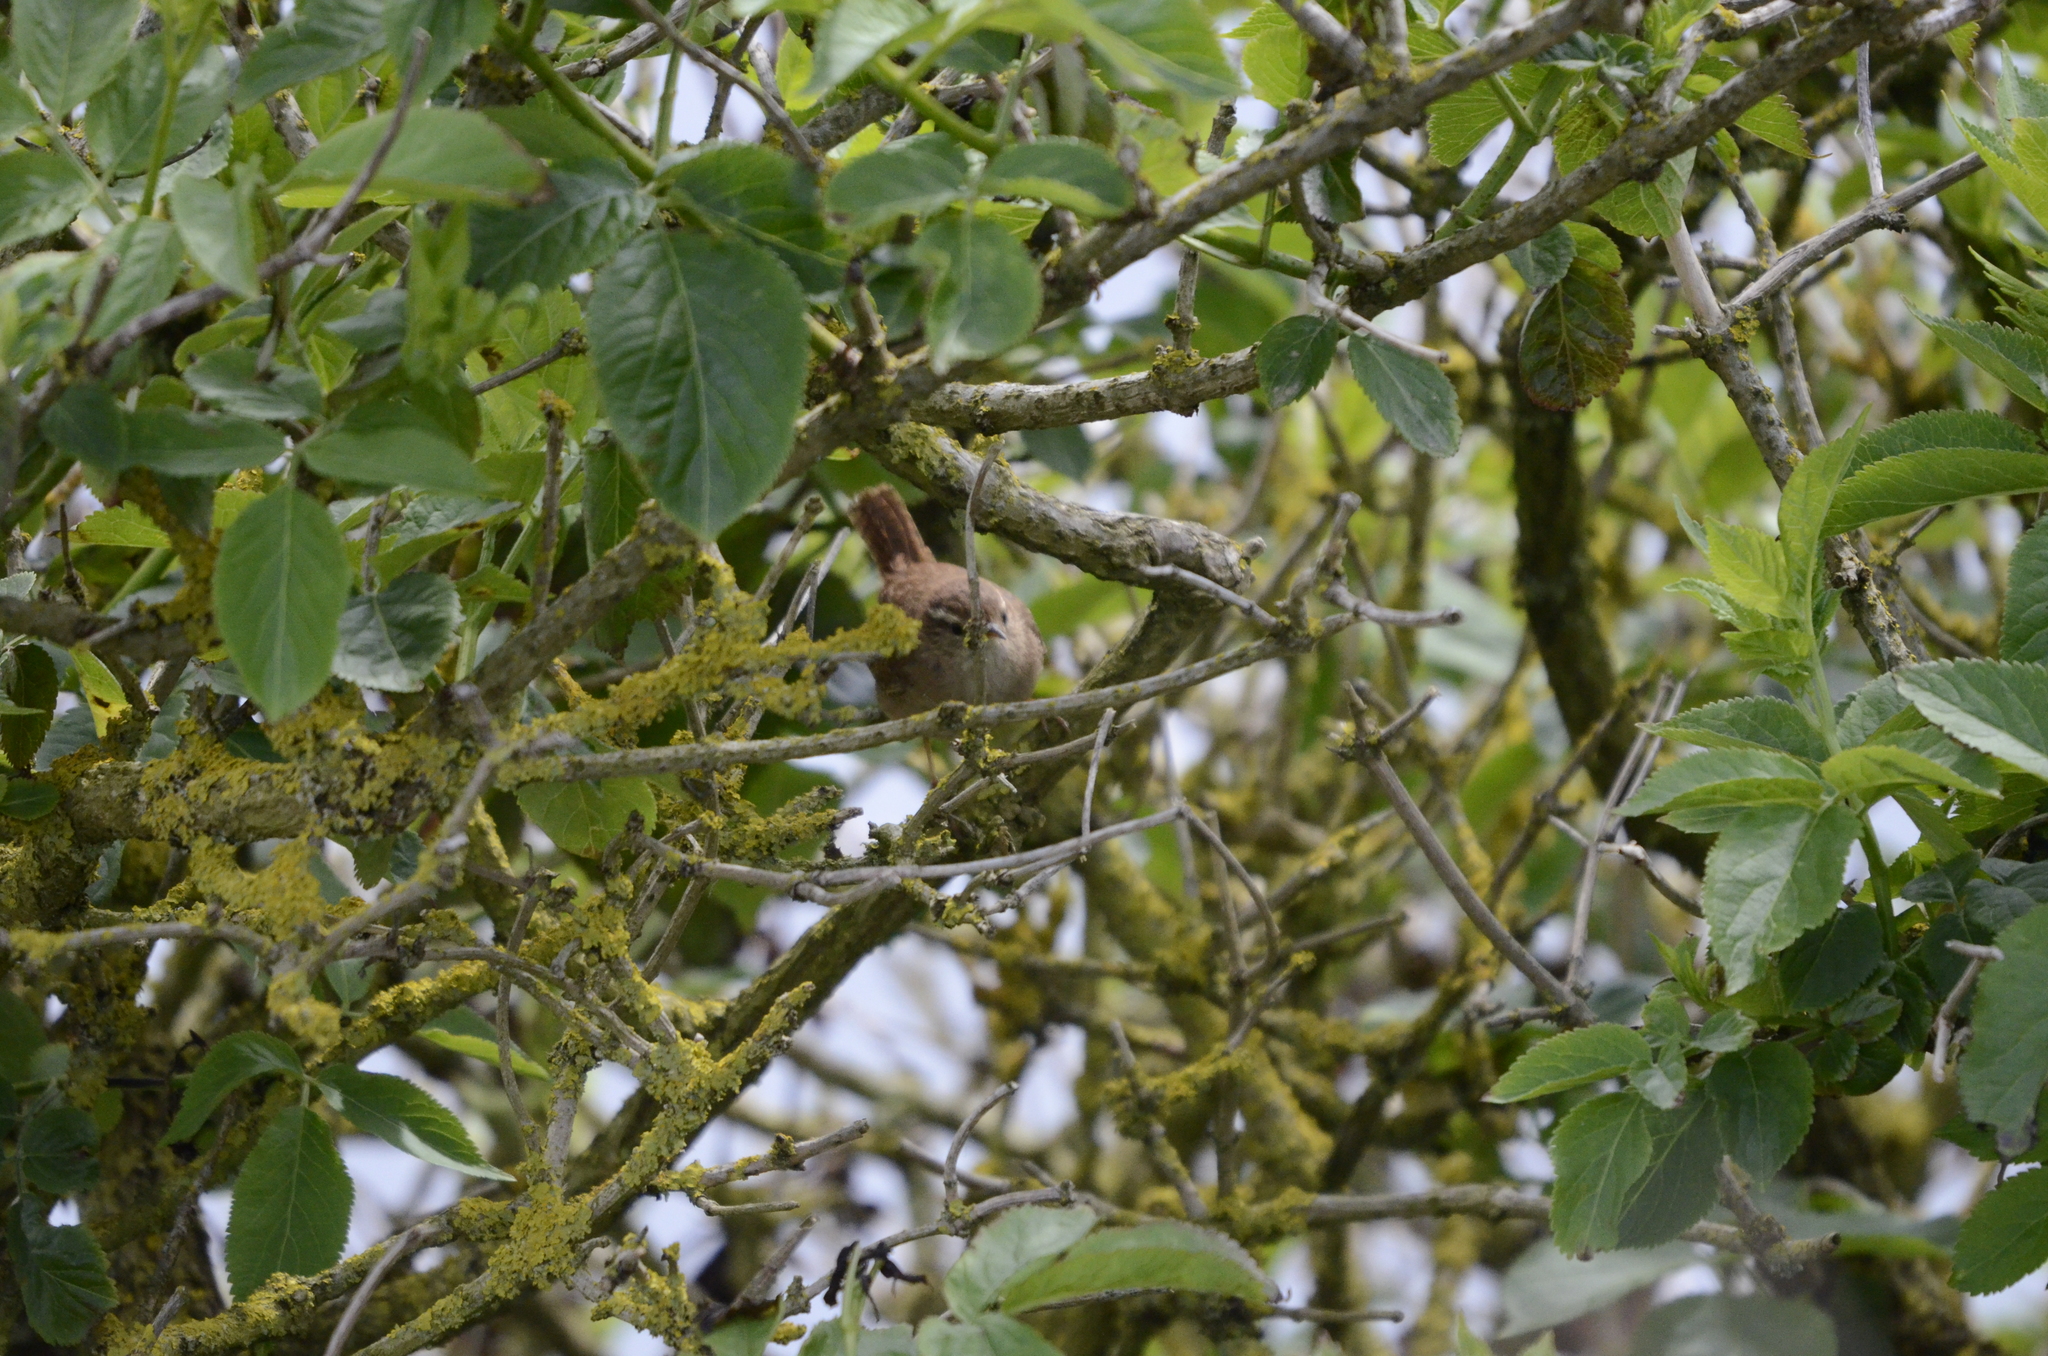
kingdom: Animalia
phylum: Chordata
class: Aves
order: Passeriformes
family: Troglodytidae
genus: Troglodytes
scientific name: Troglodytes troglodytes
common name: Eurasian wren
